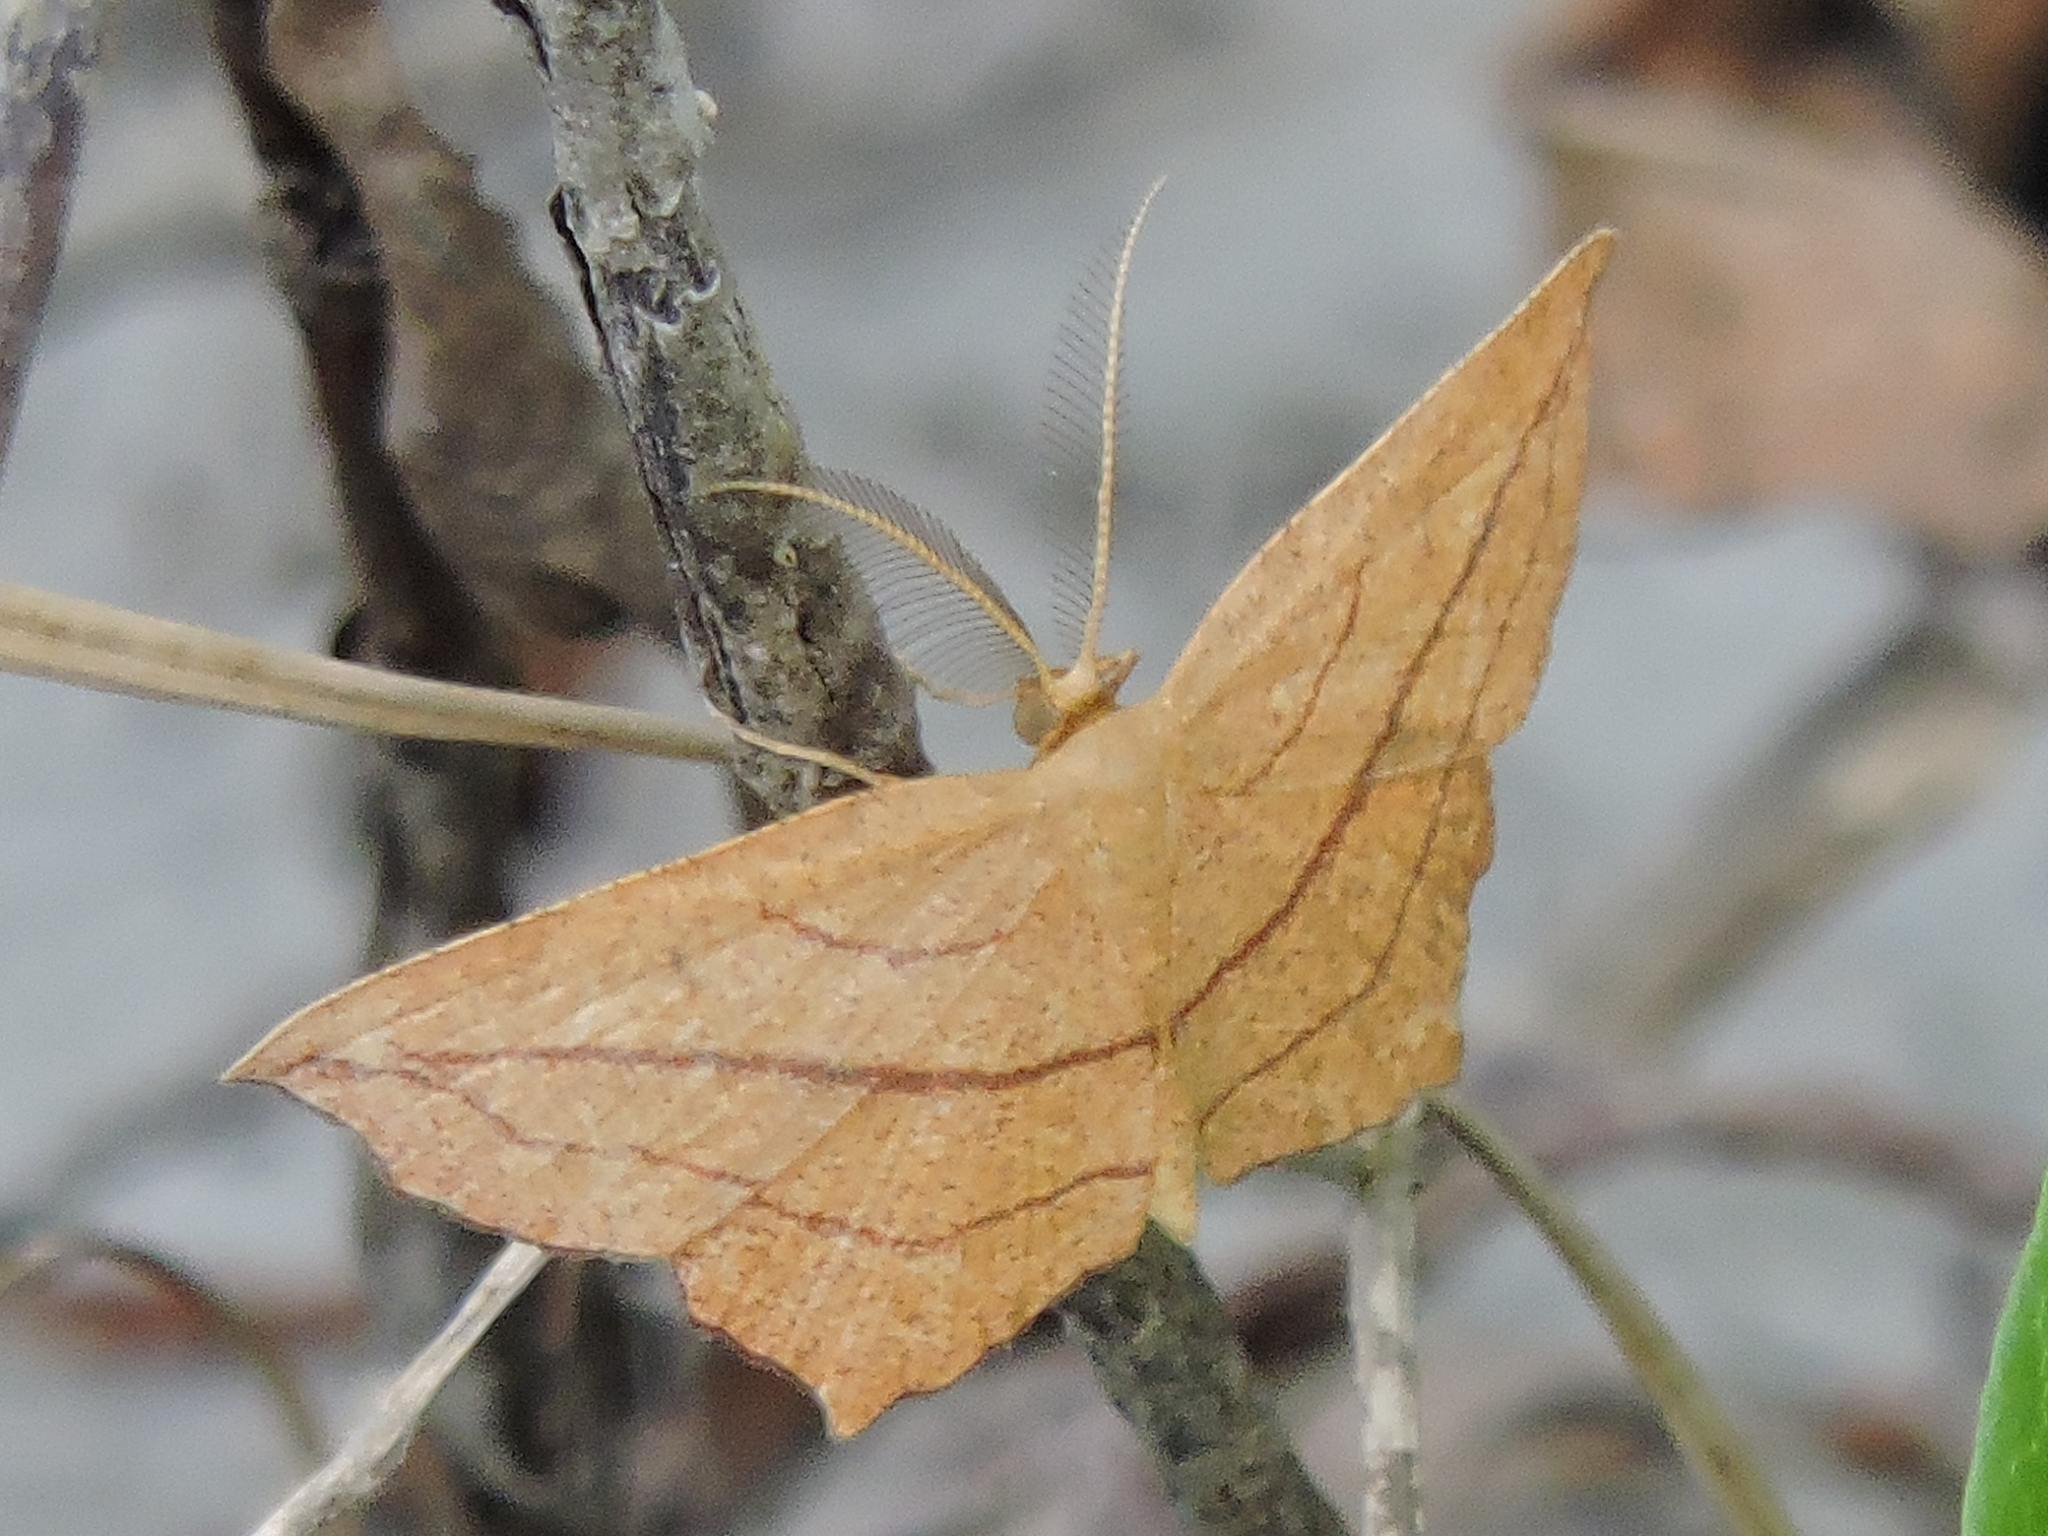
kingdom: Animalia
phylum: Arthropoda
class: Insecta
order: Lepidoptera
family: Geometridae
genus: Timandra
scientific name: Timandra amaturaria
